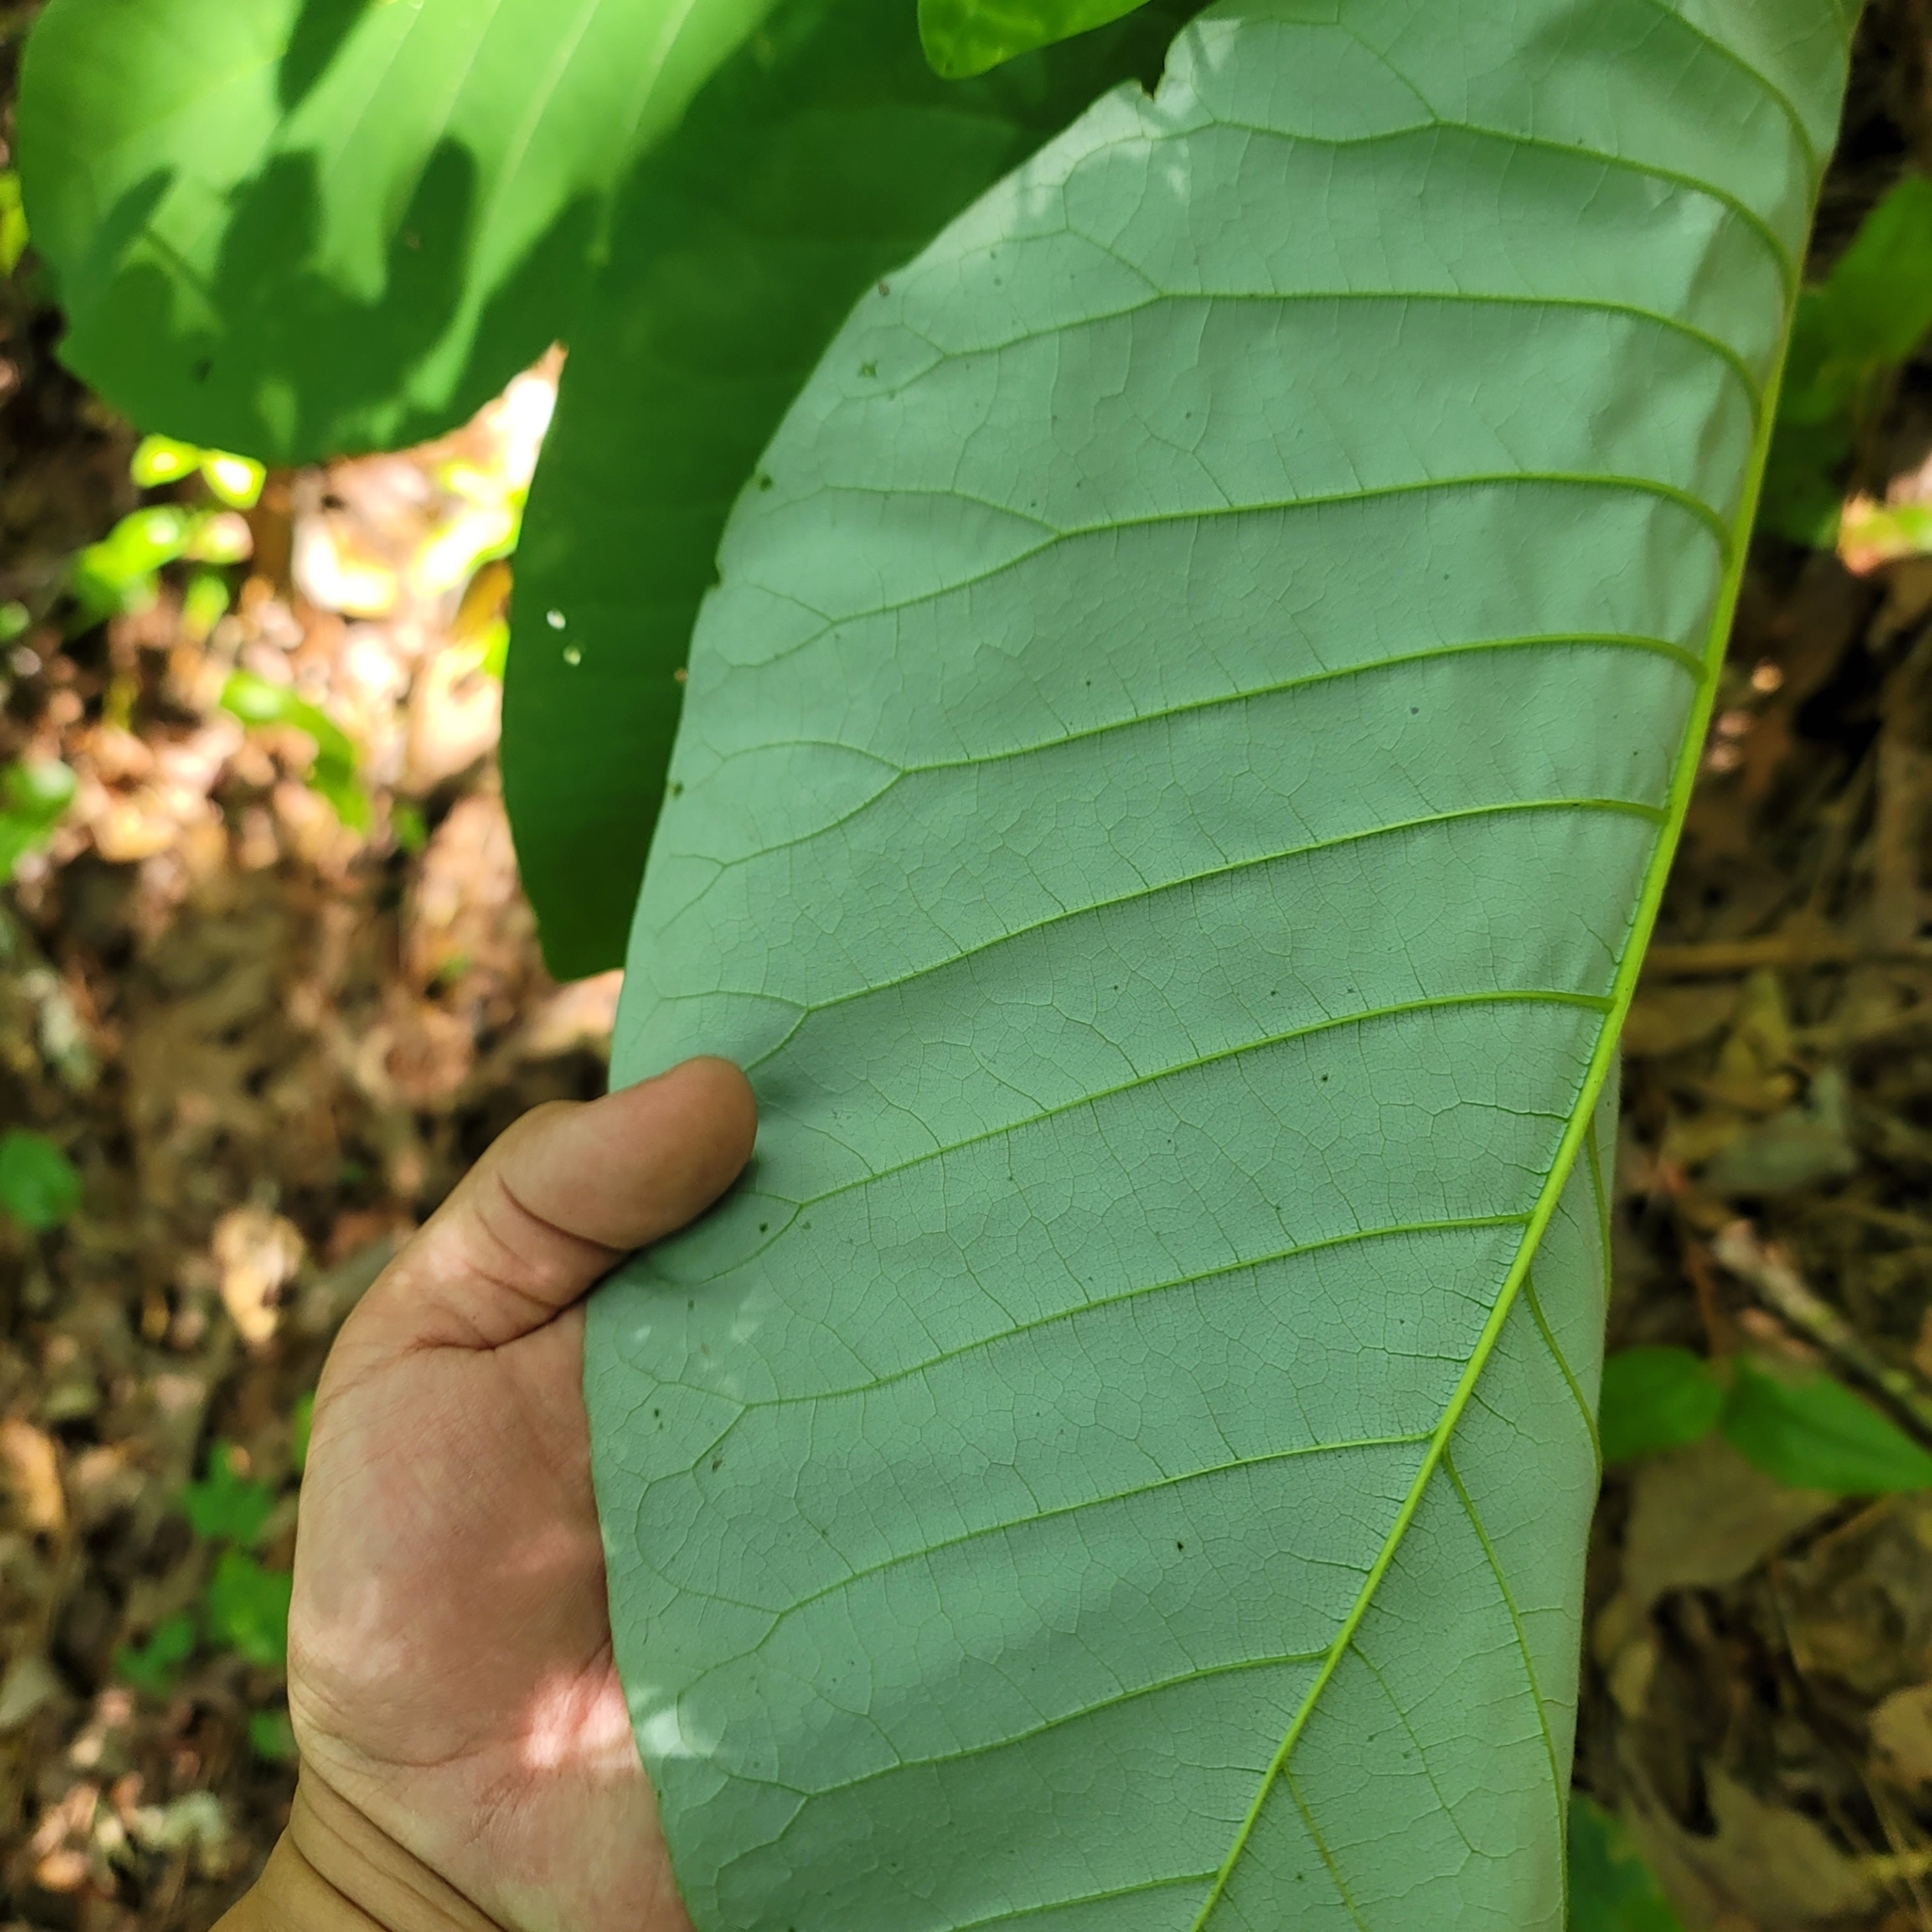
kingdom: Plantae
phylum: Tracheophyta
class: Magnoliopsida
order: Magnoliales
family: Magnoliaceae
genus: Magnolia
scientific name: Magnolia macrophylla
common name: Big-leaf magnolia
